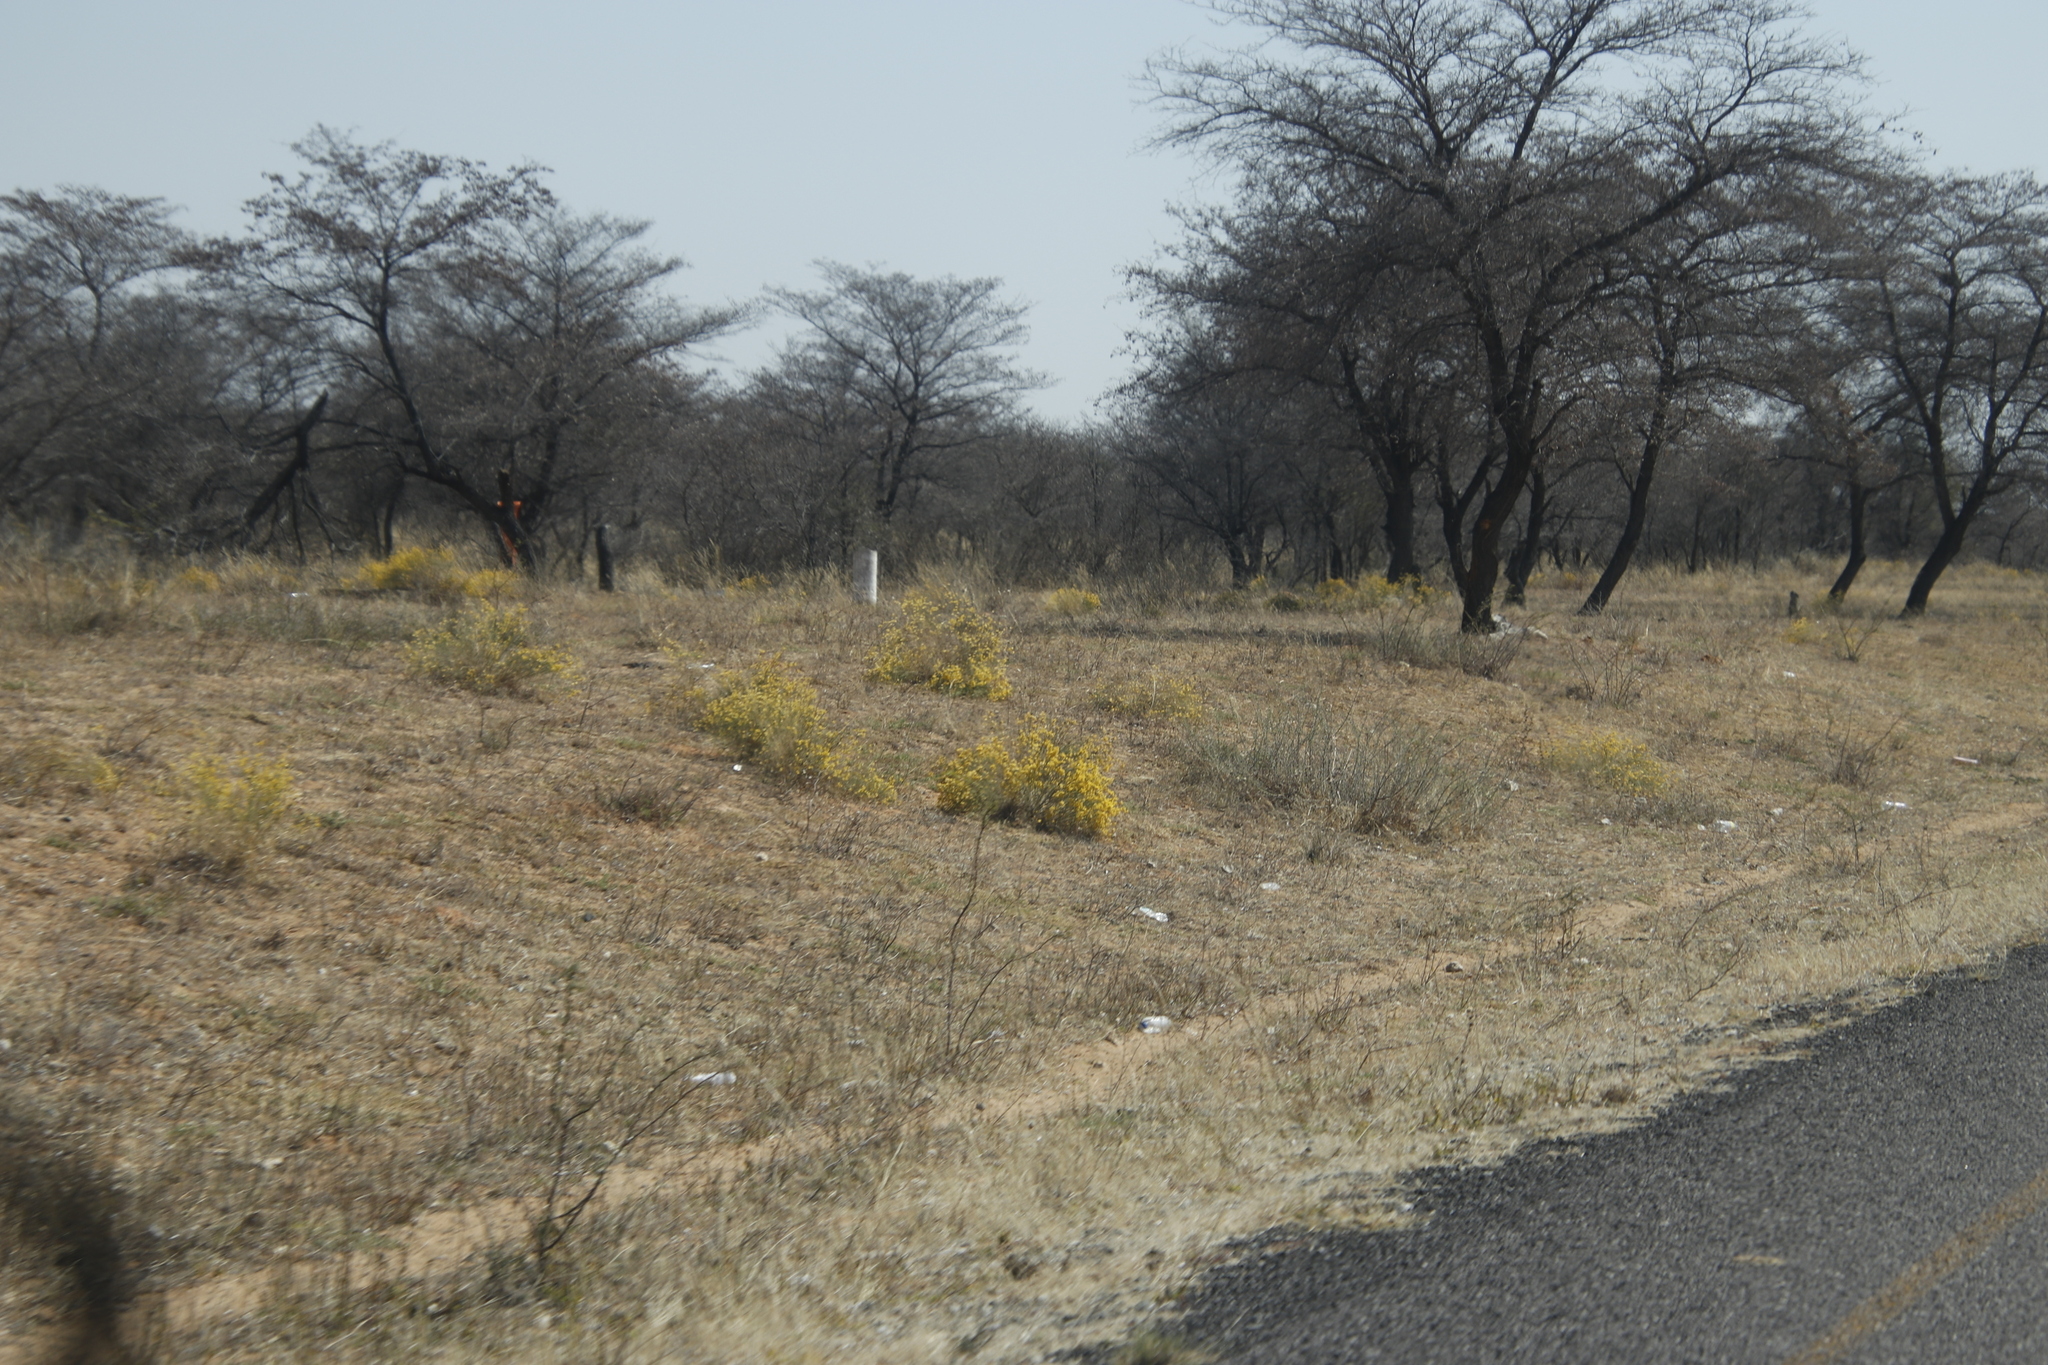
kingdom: Plantae
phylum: Tracheophyta
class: Magnoliopsida
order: Malvales
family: Thymelaeaceae
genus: Gnidia
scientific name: Gnidia polycephala
